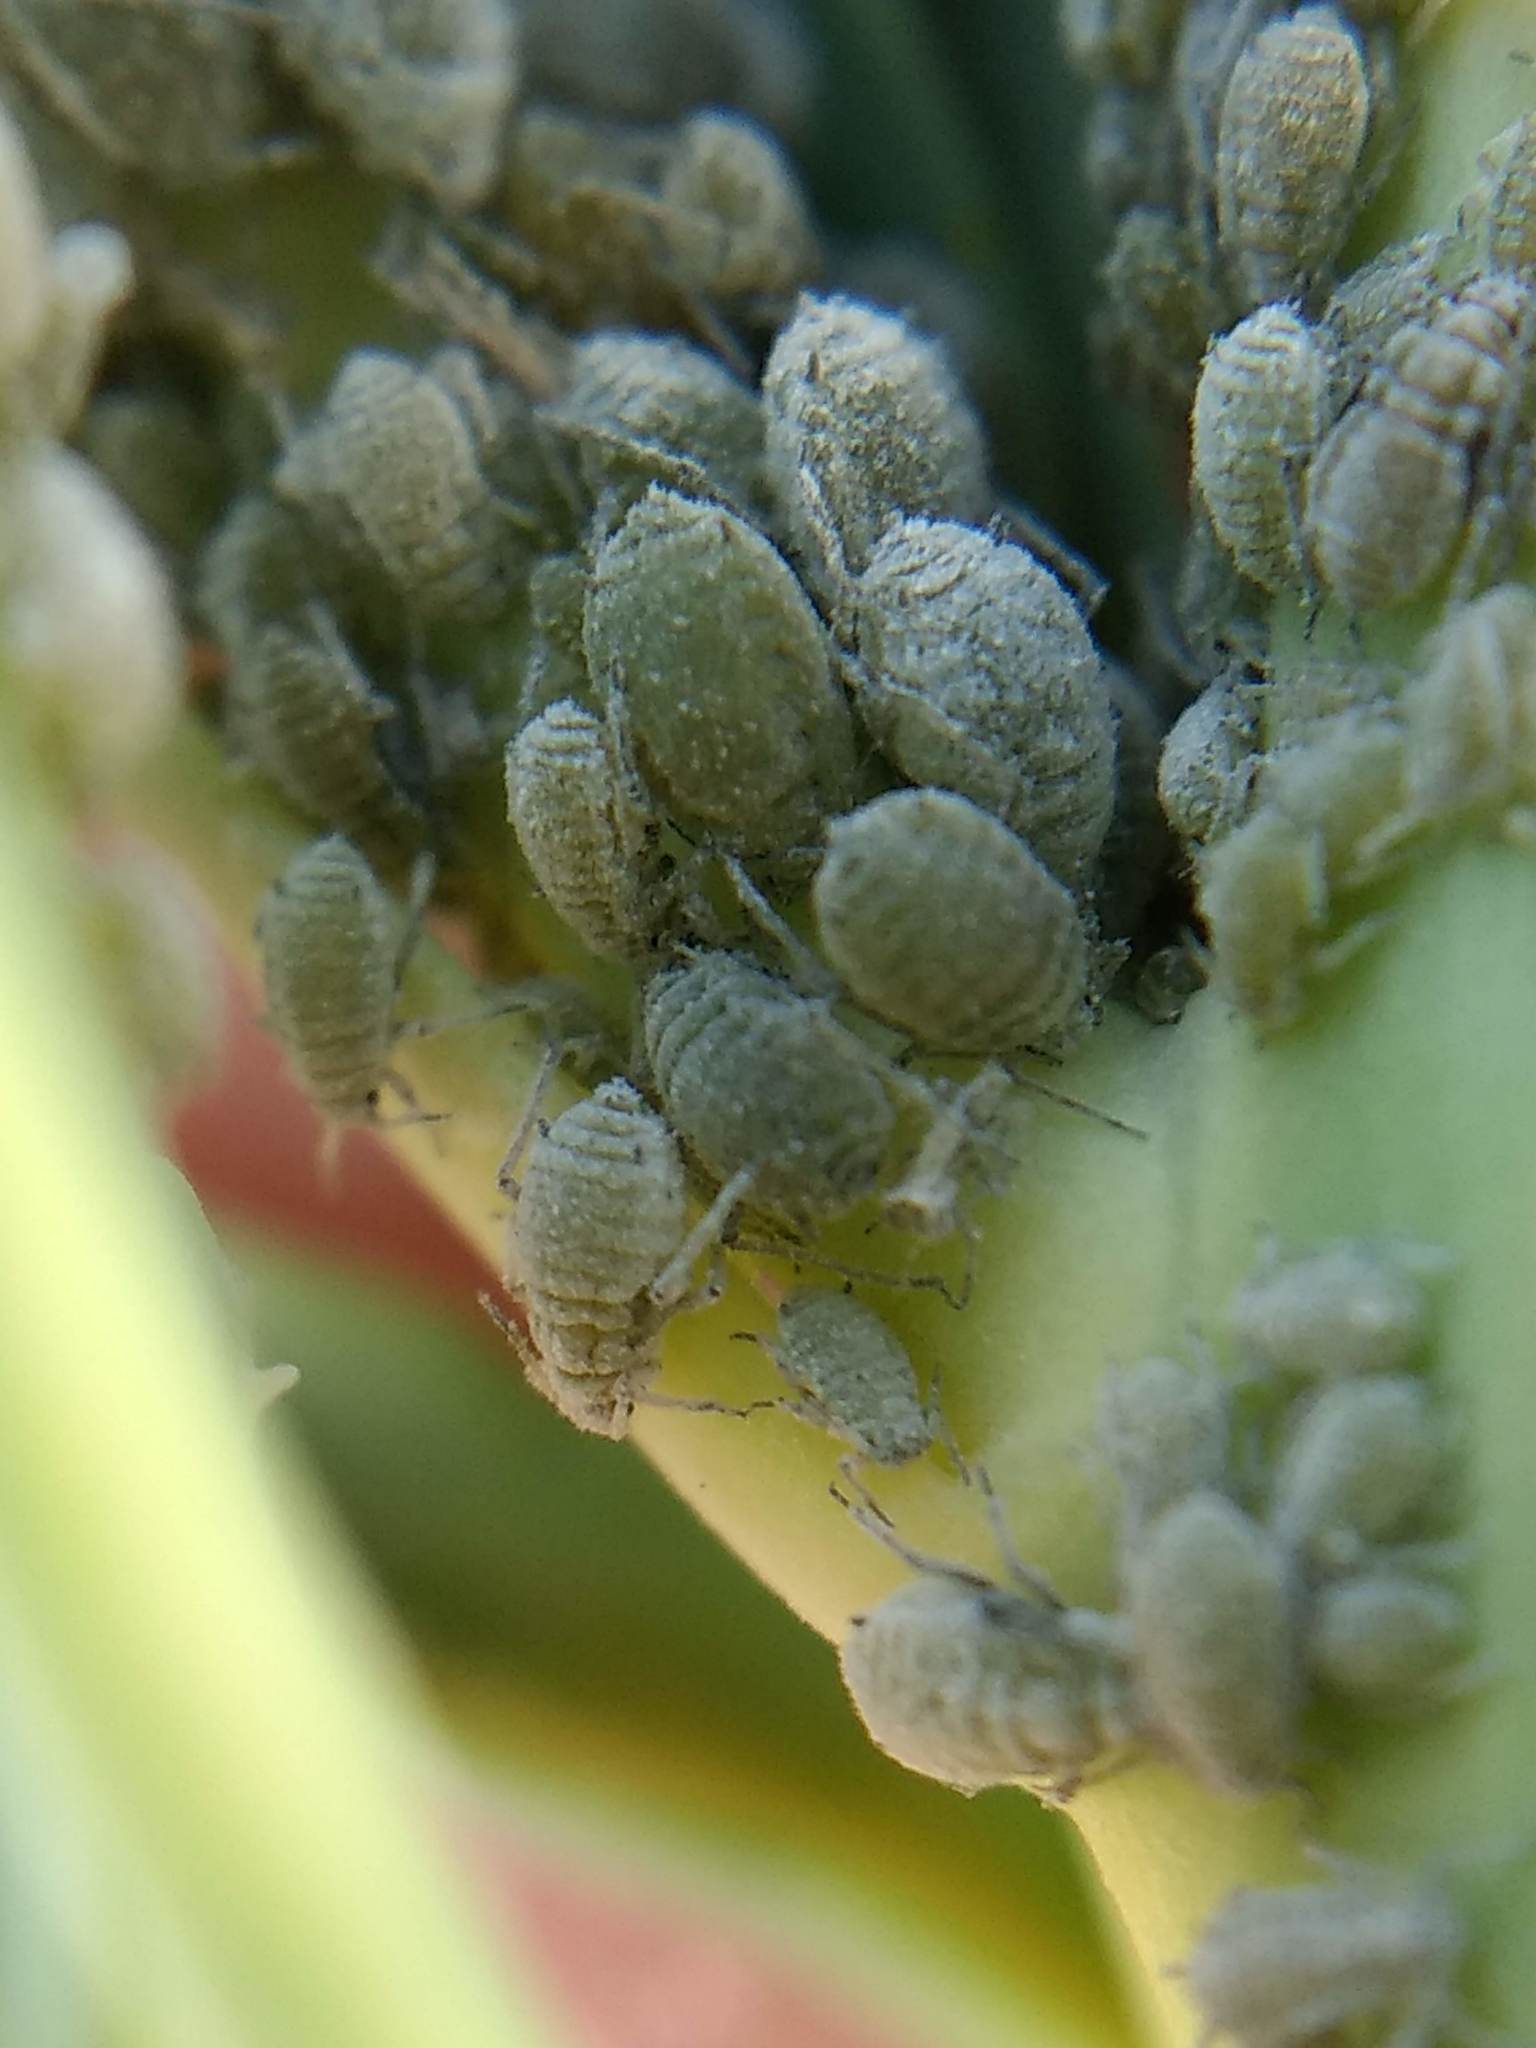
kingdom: Animalia
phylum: Arthropoda
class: Insecta
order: Hemiptera
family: Aphididae
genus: Brevicoryne
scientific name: Brevicoryne brassicae
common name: Cabbage aphid
